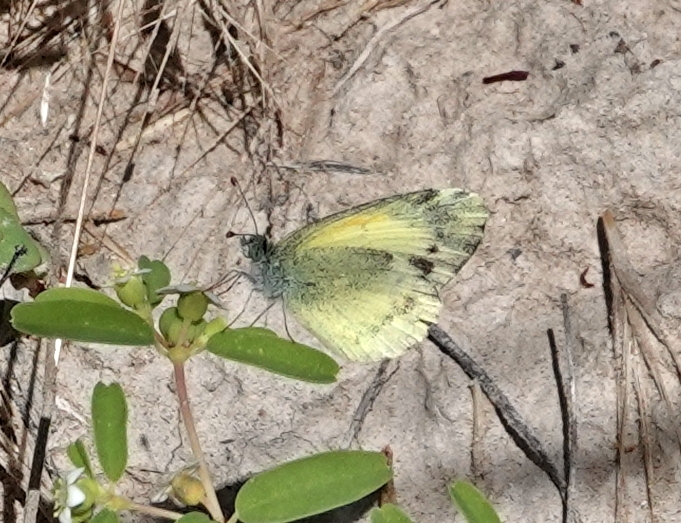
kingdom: Animalia
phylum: Arthropoda
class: Insecta
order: Lepidoptera
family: Pieridae
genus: Nathalis
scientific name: Nathalis iole
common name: Dainty sulphur
